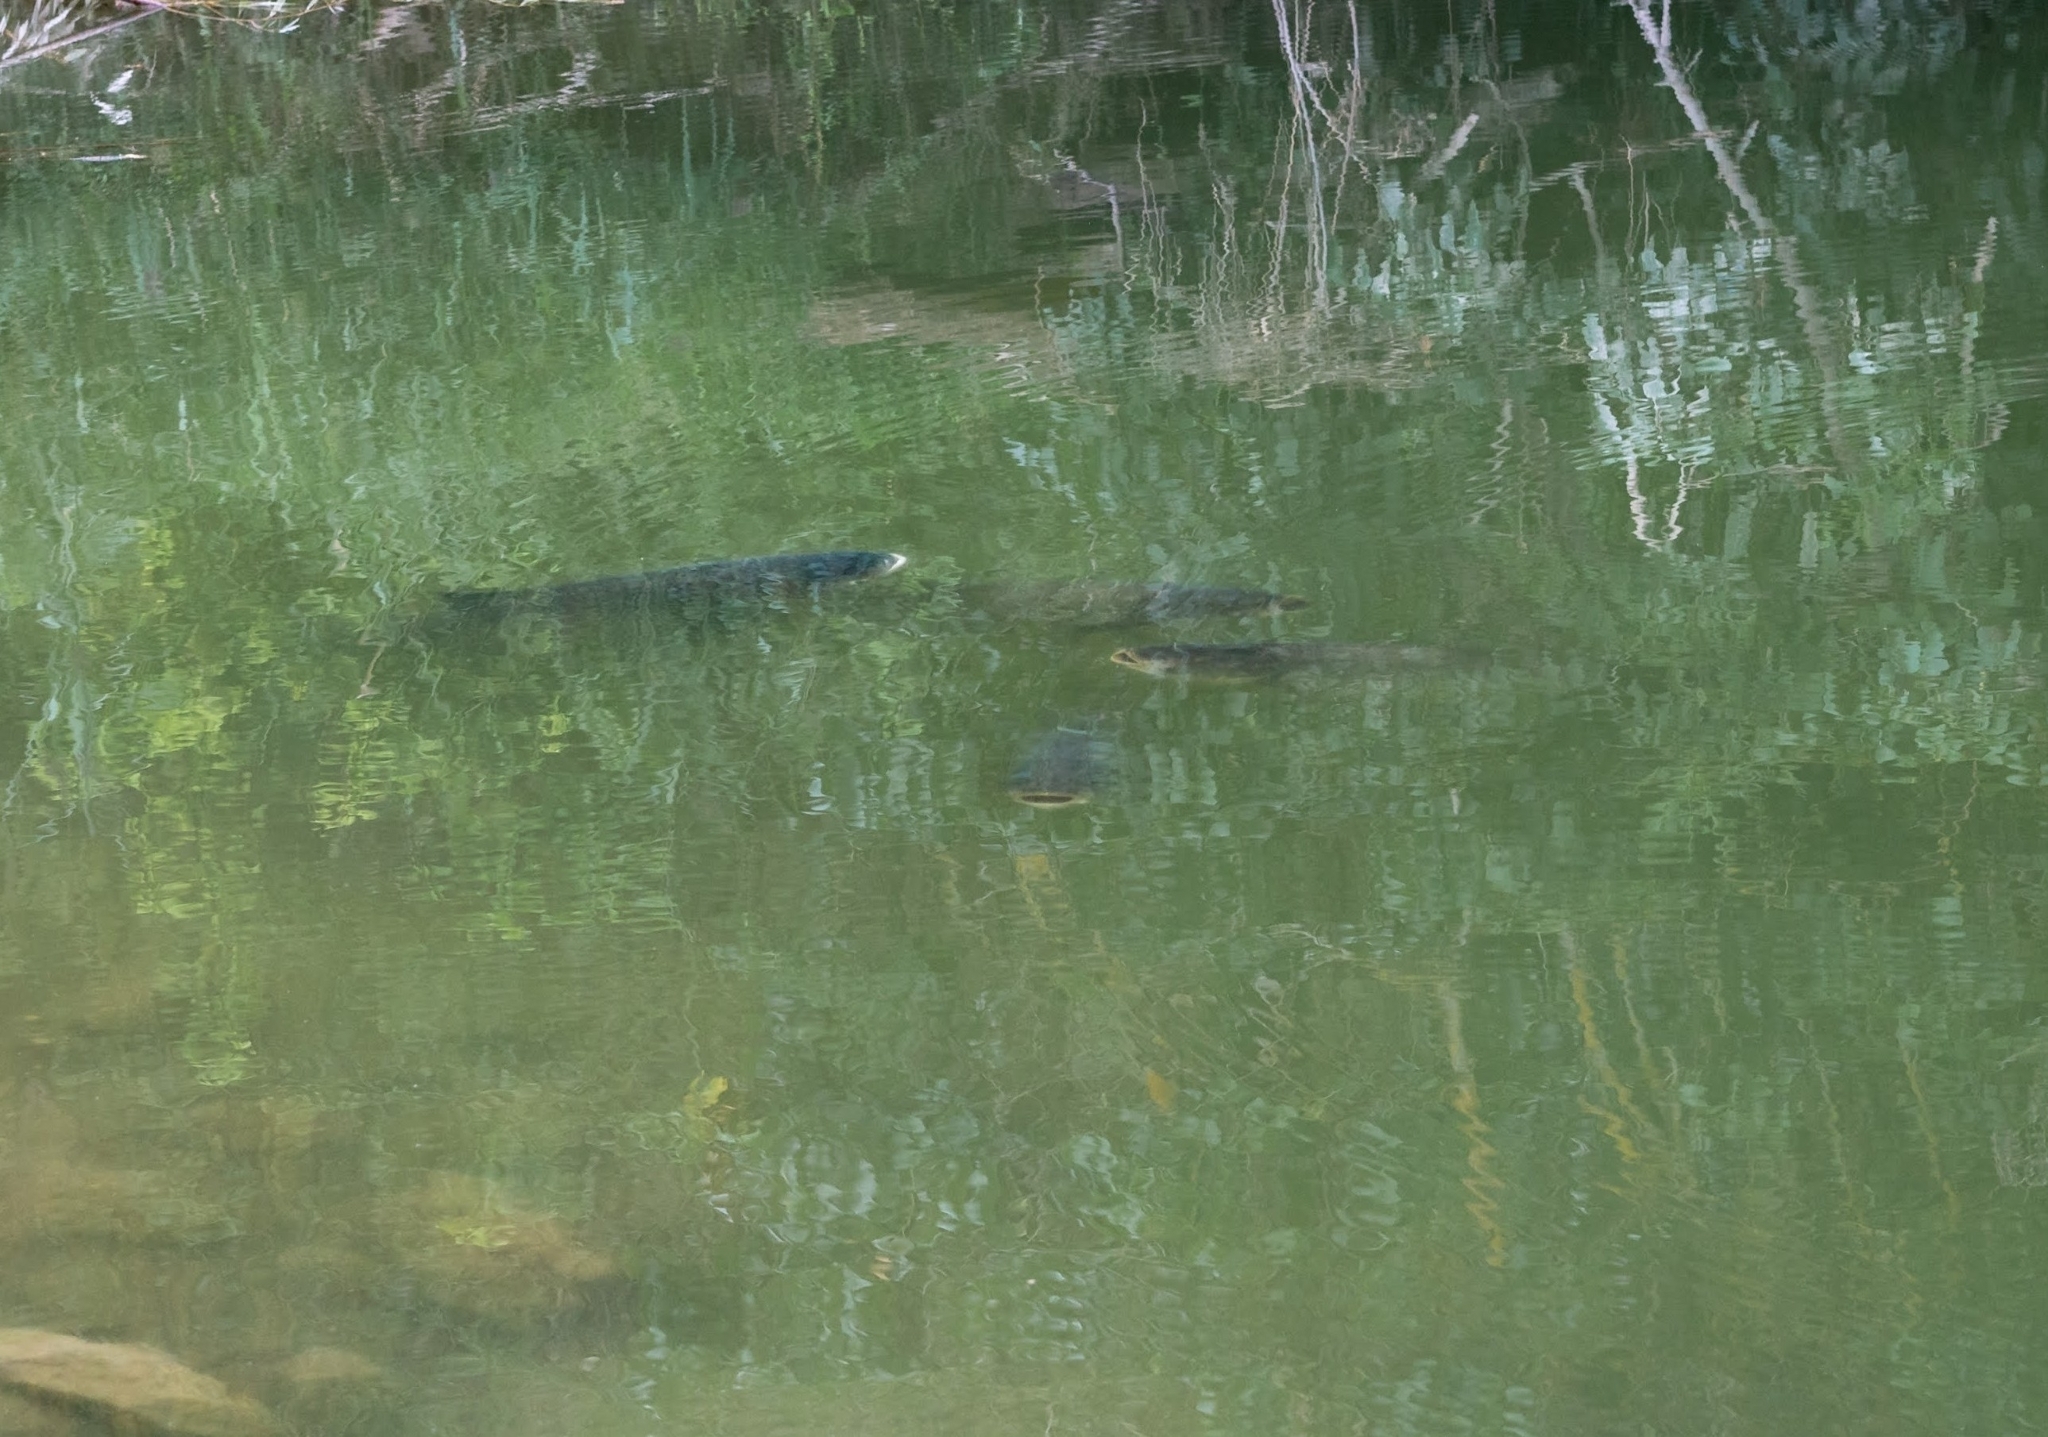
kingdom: Animalia
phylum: Chordata
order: Cypriniformes
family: Cyprinidae
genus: Hypophthalmichthys
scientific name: Hypophthalmichthys nobilis
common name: Bighead carp
